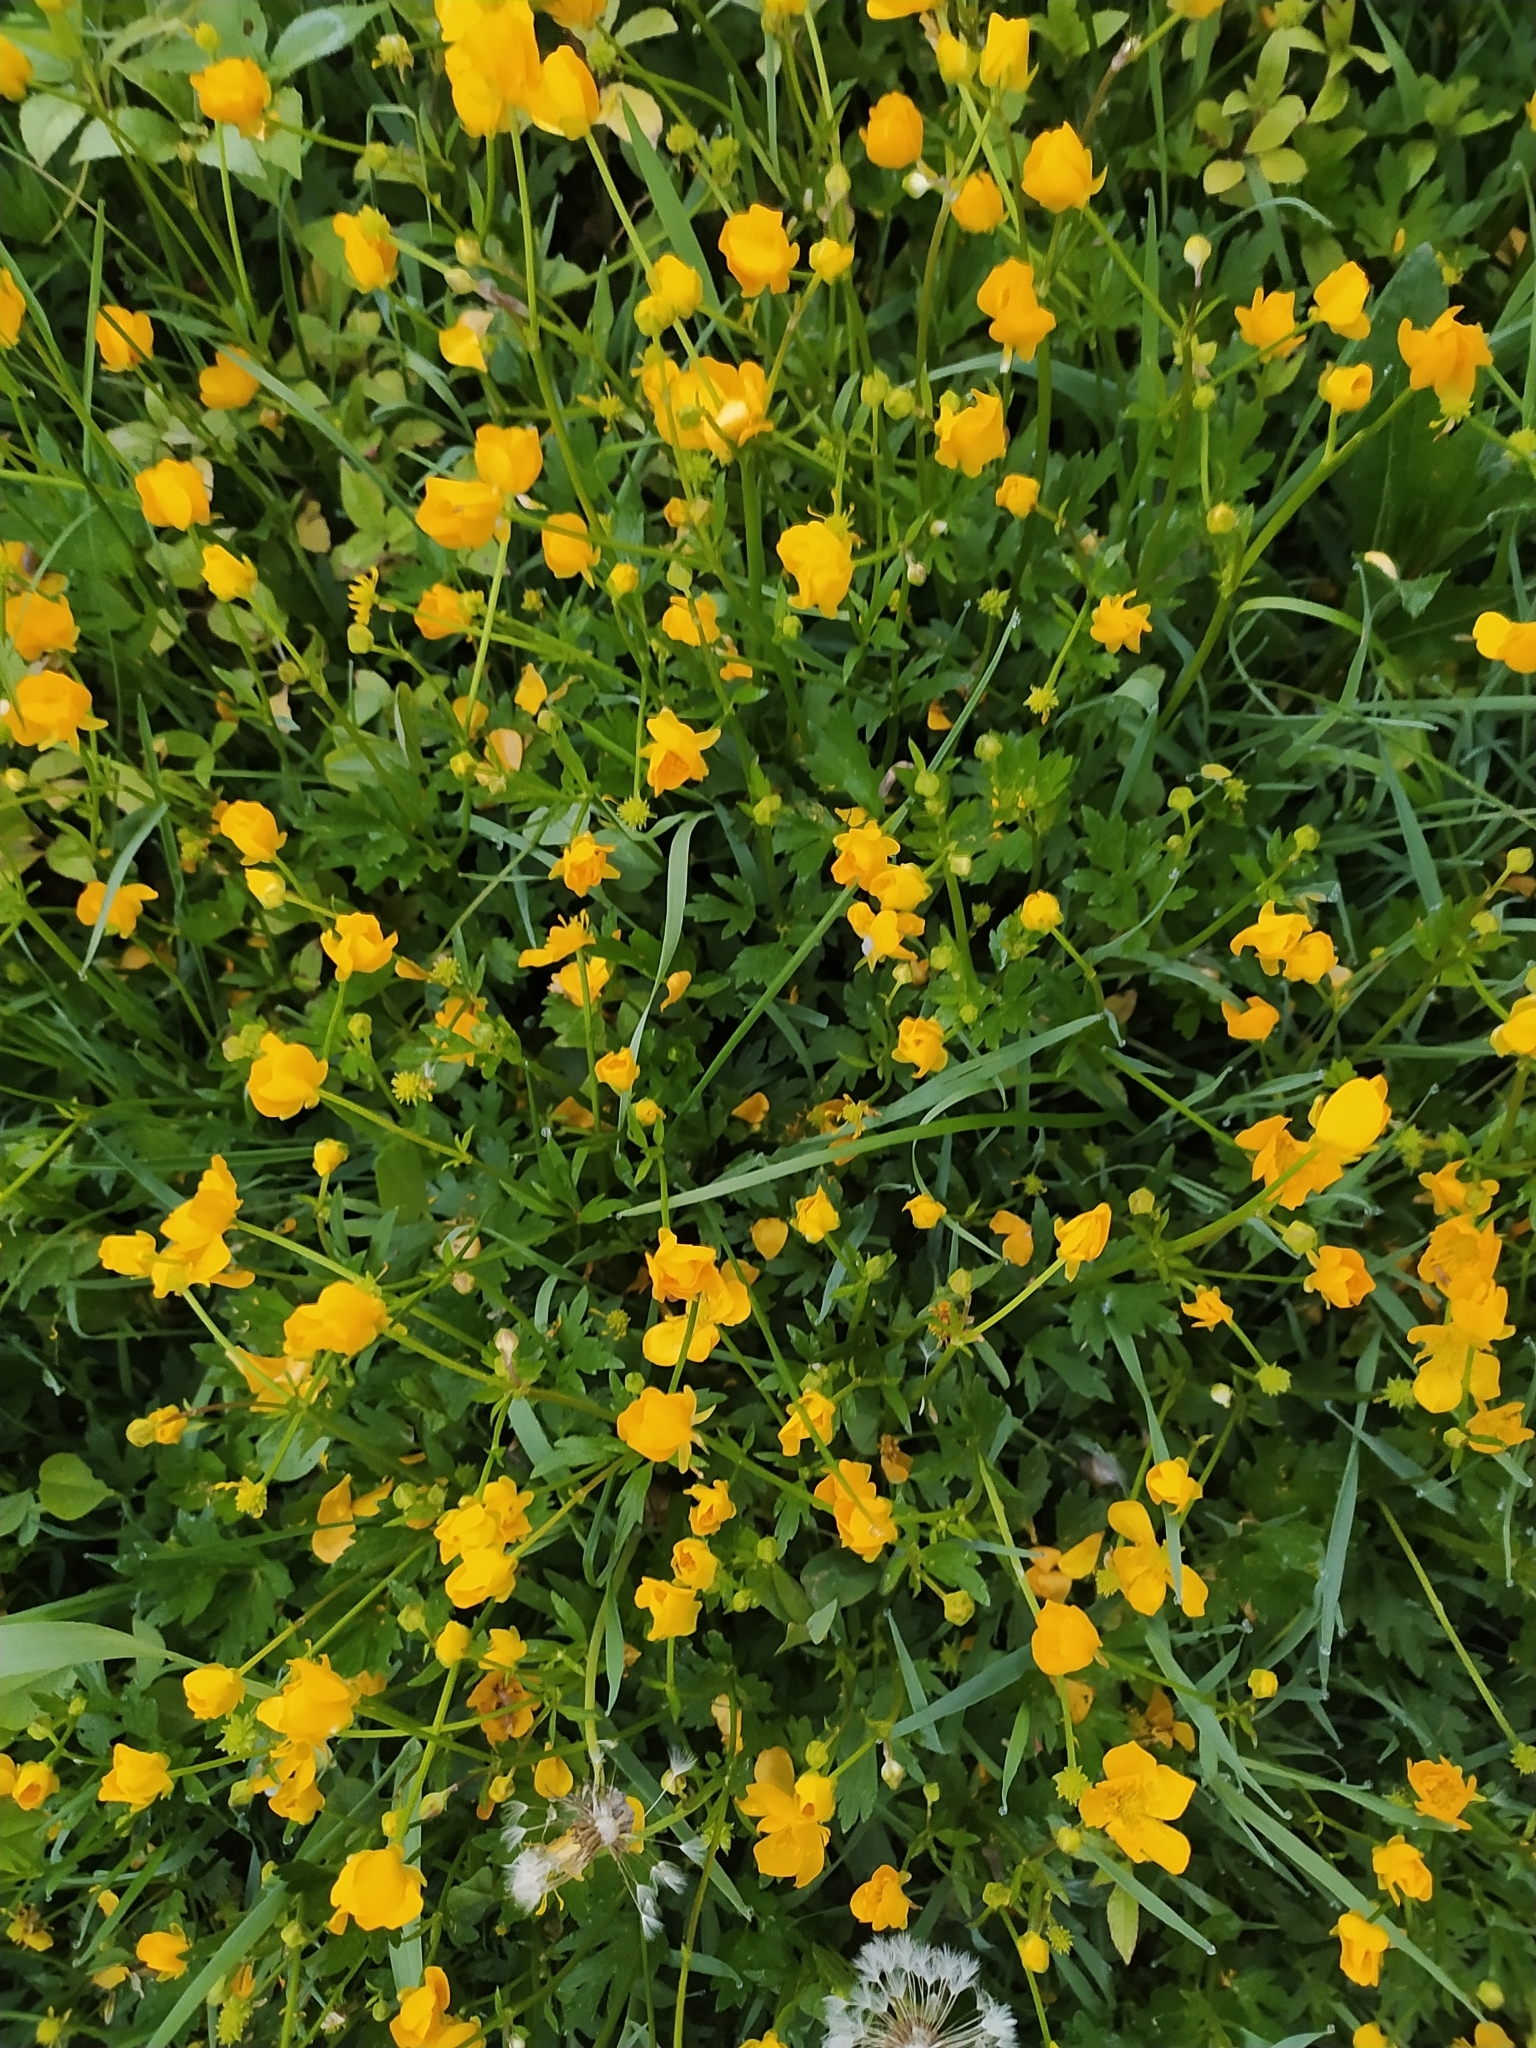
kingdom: Plantae
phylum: Tracheophyta
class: Magnoliopsida
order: Ranunculales
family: Ranunculaceae
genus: Ranunculus
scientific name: Ranunculus repens
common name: Creeping buttercup
